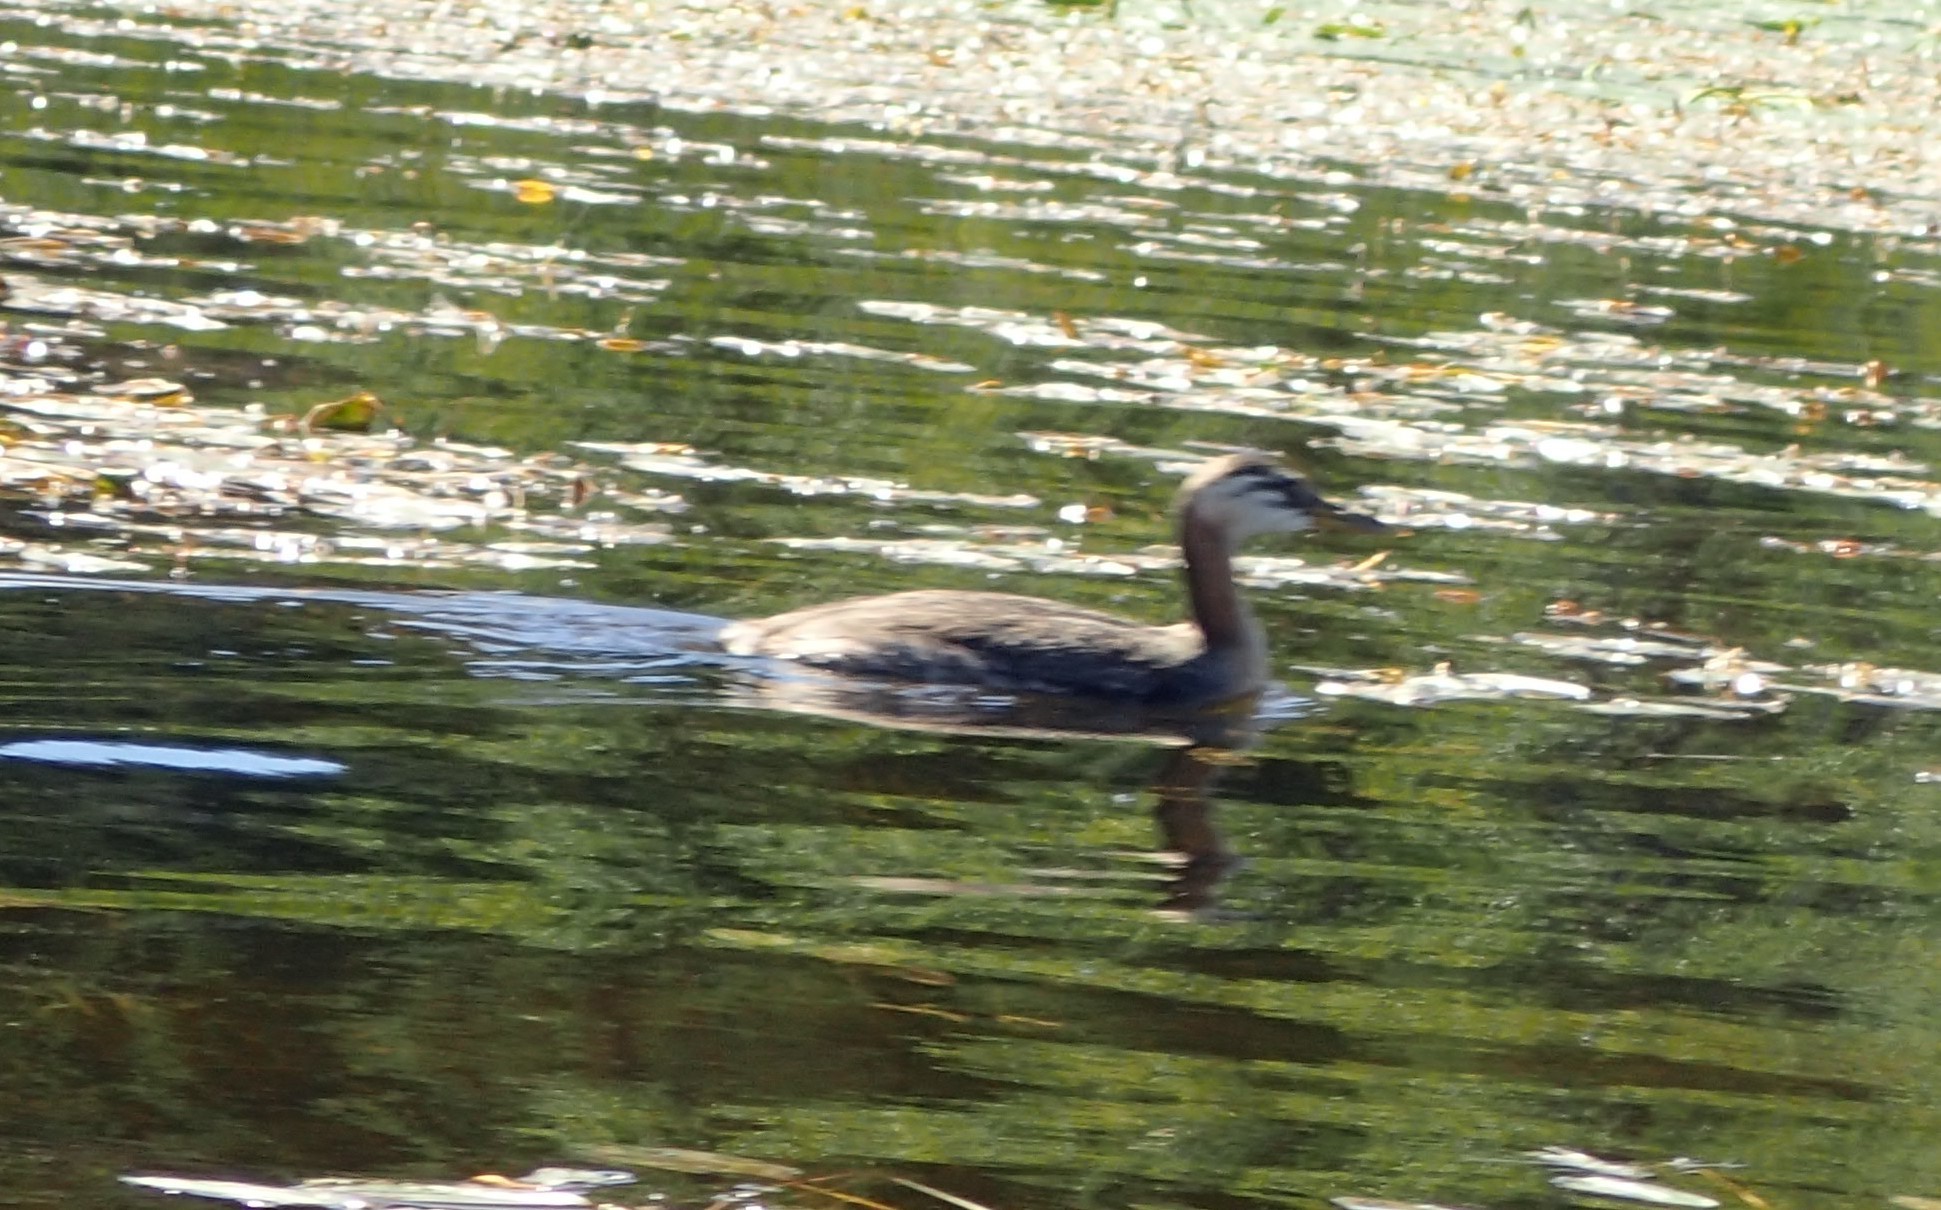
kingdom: Animalia
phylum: Chordata
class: Aves
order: Podicipediformes
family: Podicipedidae
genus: Podiceps
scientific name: Podiceps grisegena
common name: Red-necked grebe
